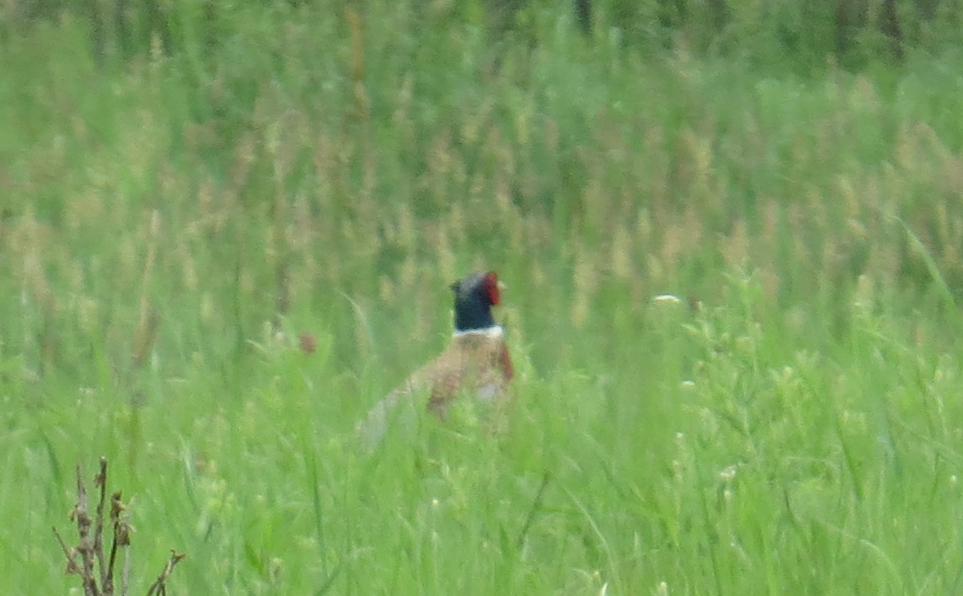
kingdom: Animalia
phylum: Chordata
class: Aves
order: Galliformes
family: Phasianidae
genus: Phasianus
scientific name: Phasianus colchicus
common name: Common pheasant
